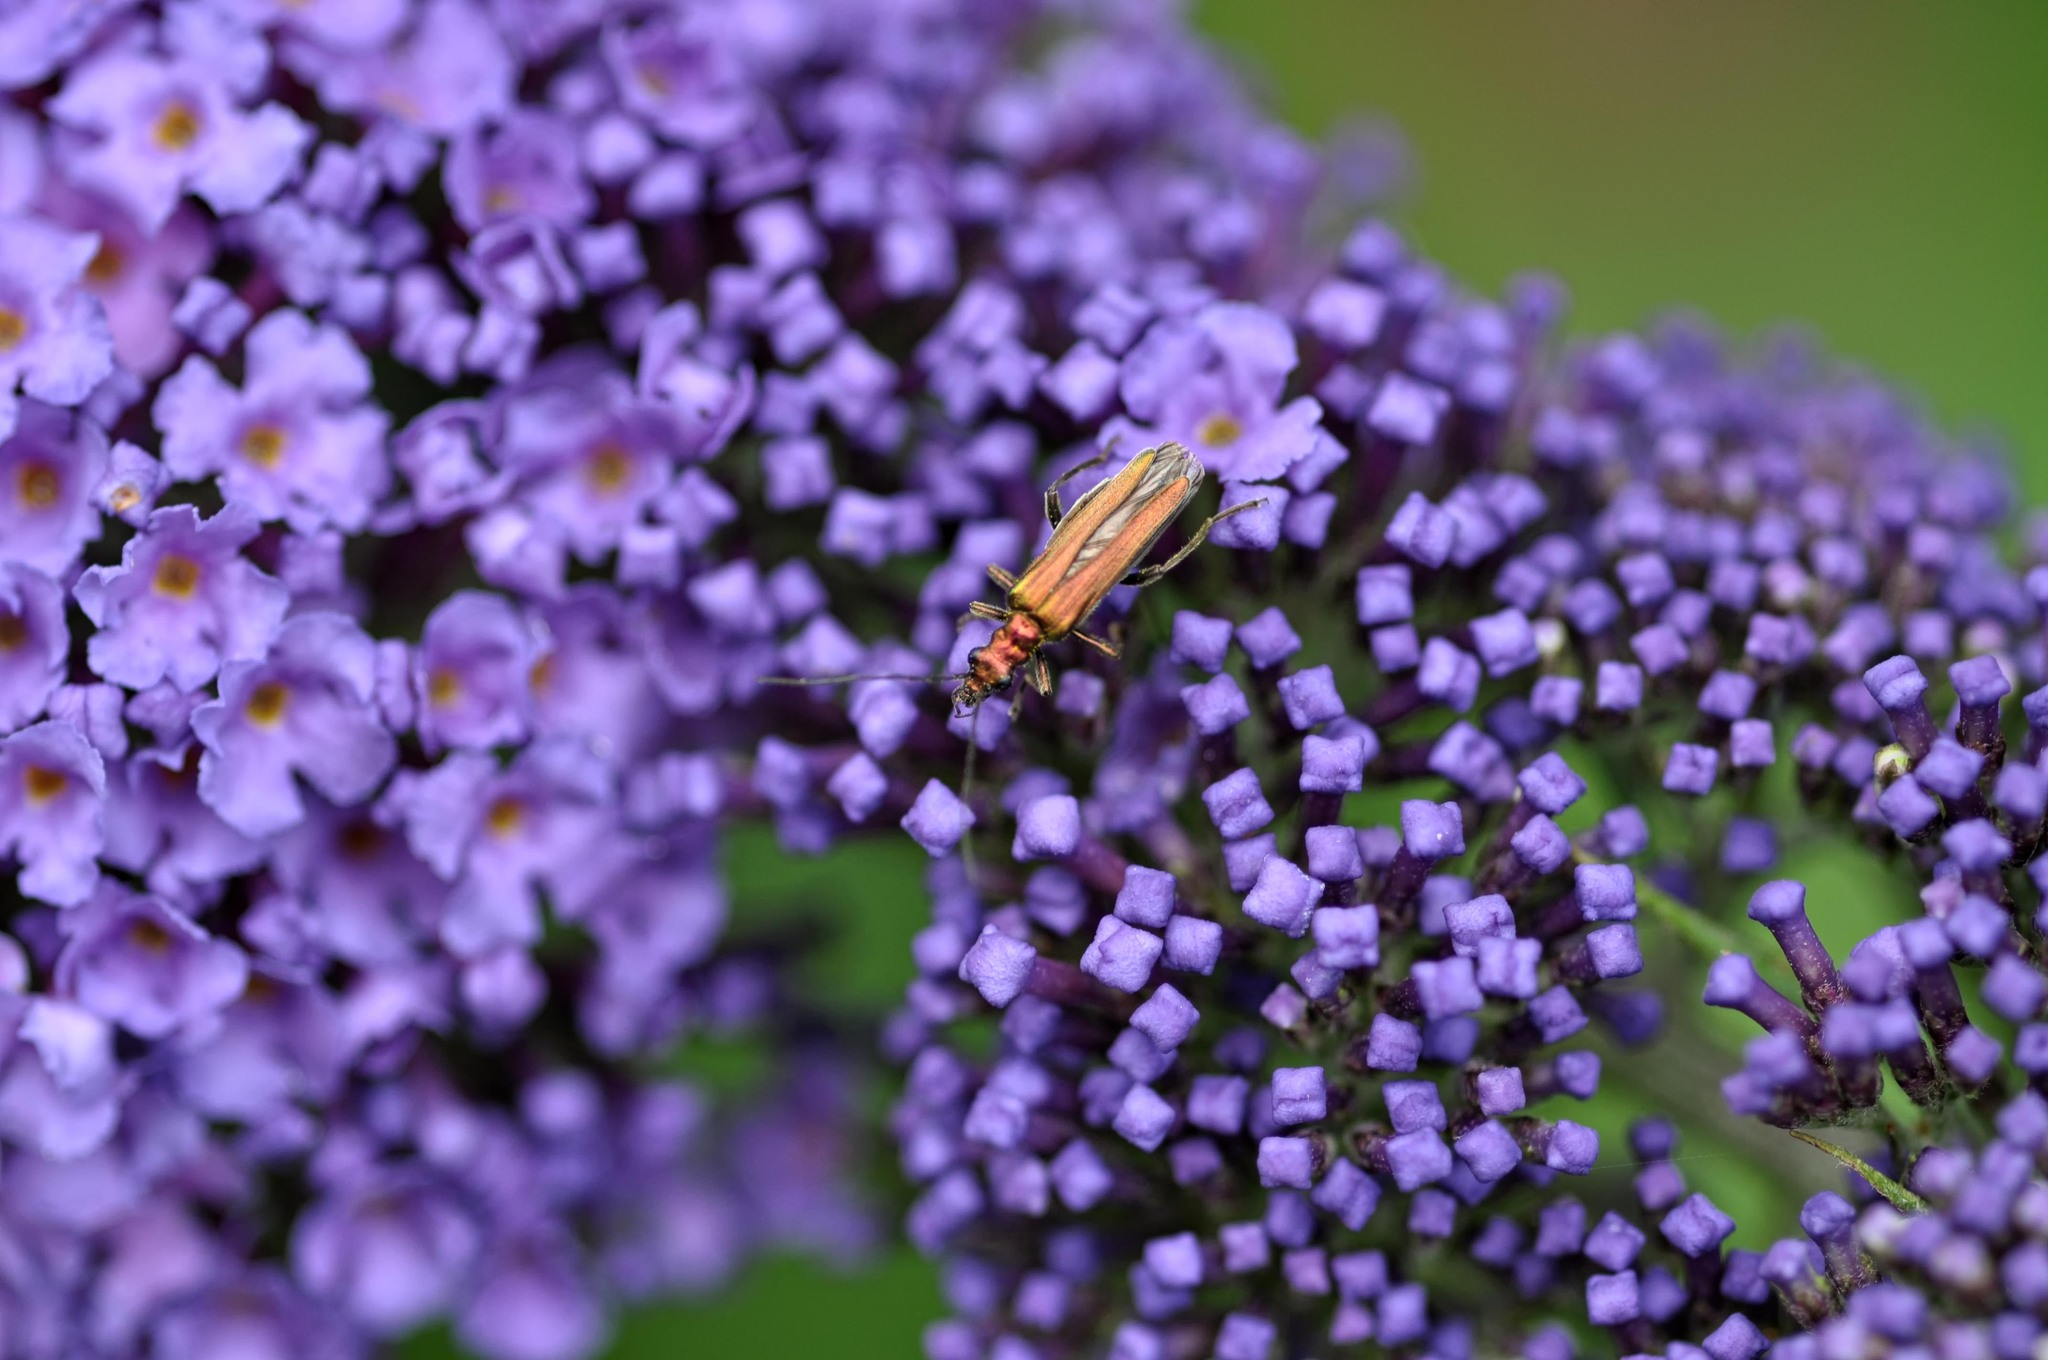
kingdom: Animalia
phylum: Arthropoda
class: Insecta
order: Coleoptera
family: Oedemeridae
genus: Oedemera
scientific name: Oedemera nobilis
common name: Swollen-thighed beetle
